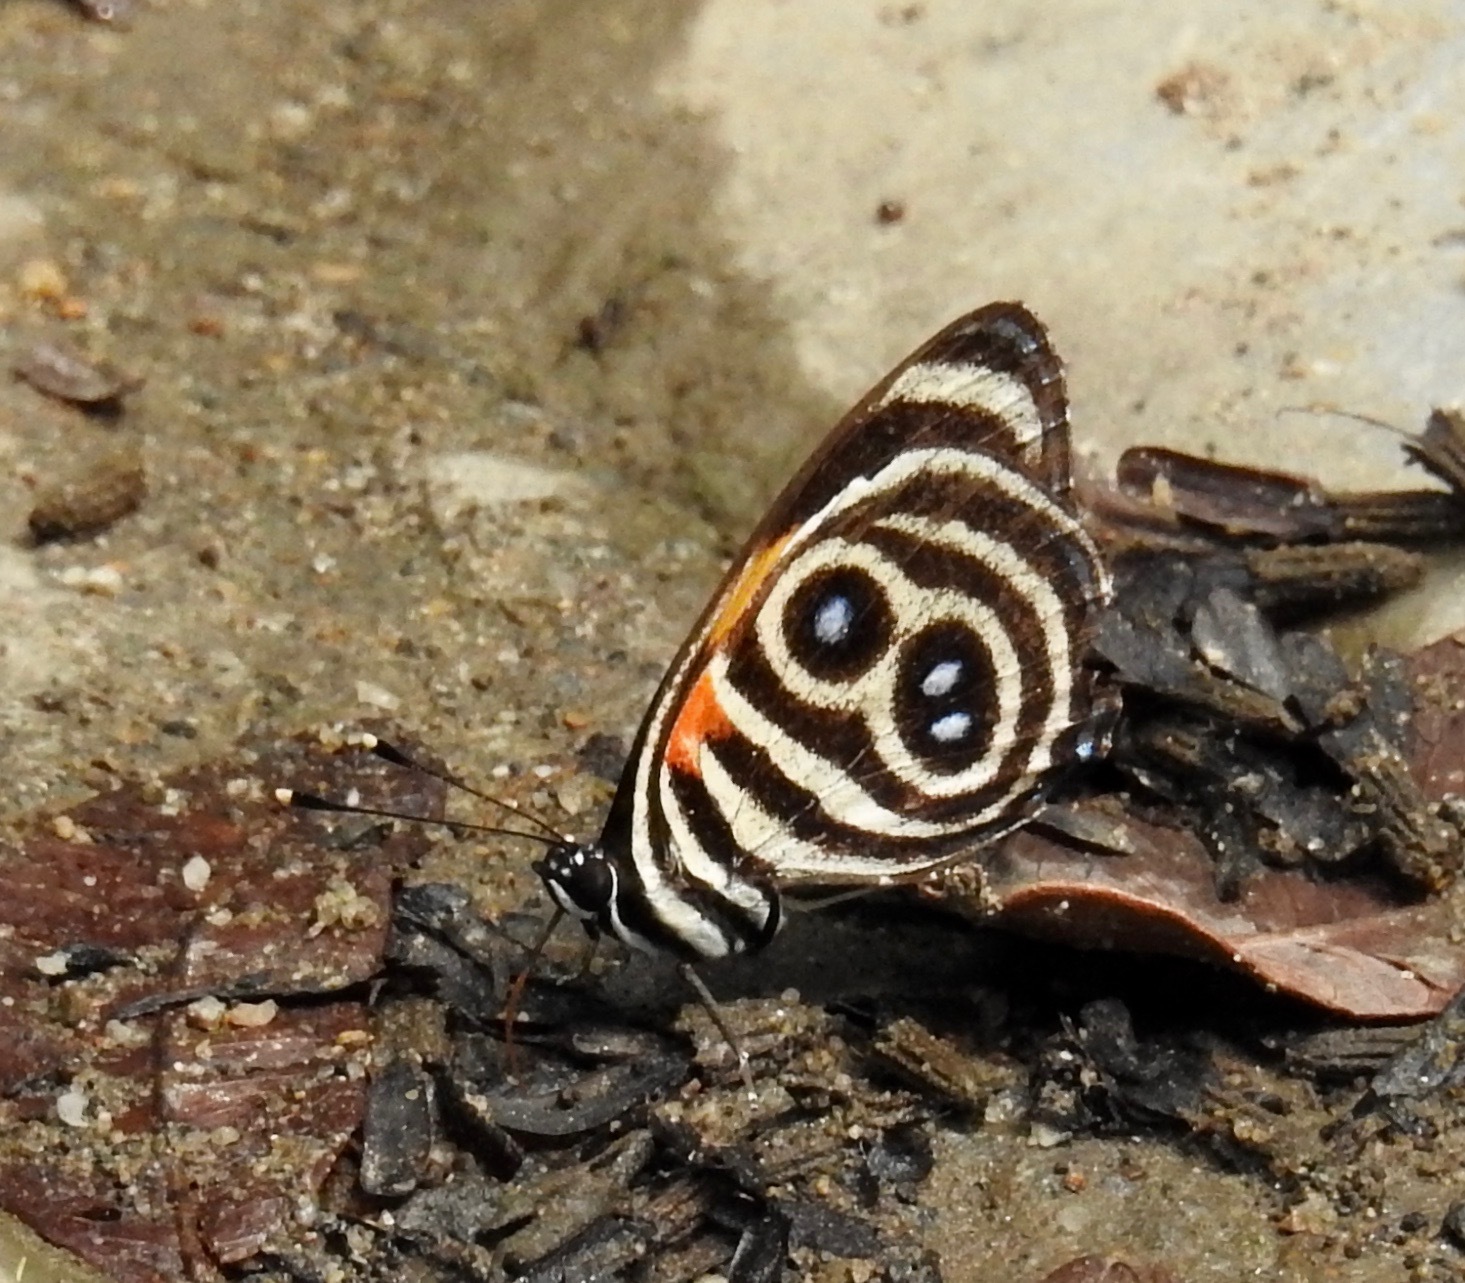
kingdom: Animalia
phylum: Arthropoda
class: Insecta
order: Lepidoptera
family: Nymphalidae
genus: Catagramma
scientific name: Catagramma tolima
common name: Blue-and-orange eighty-eight
